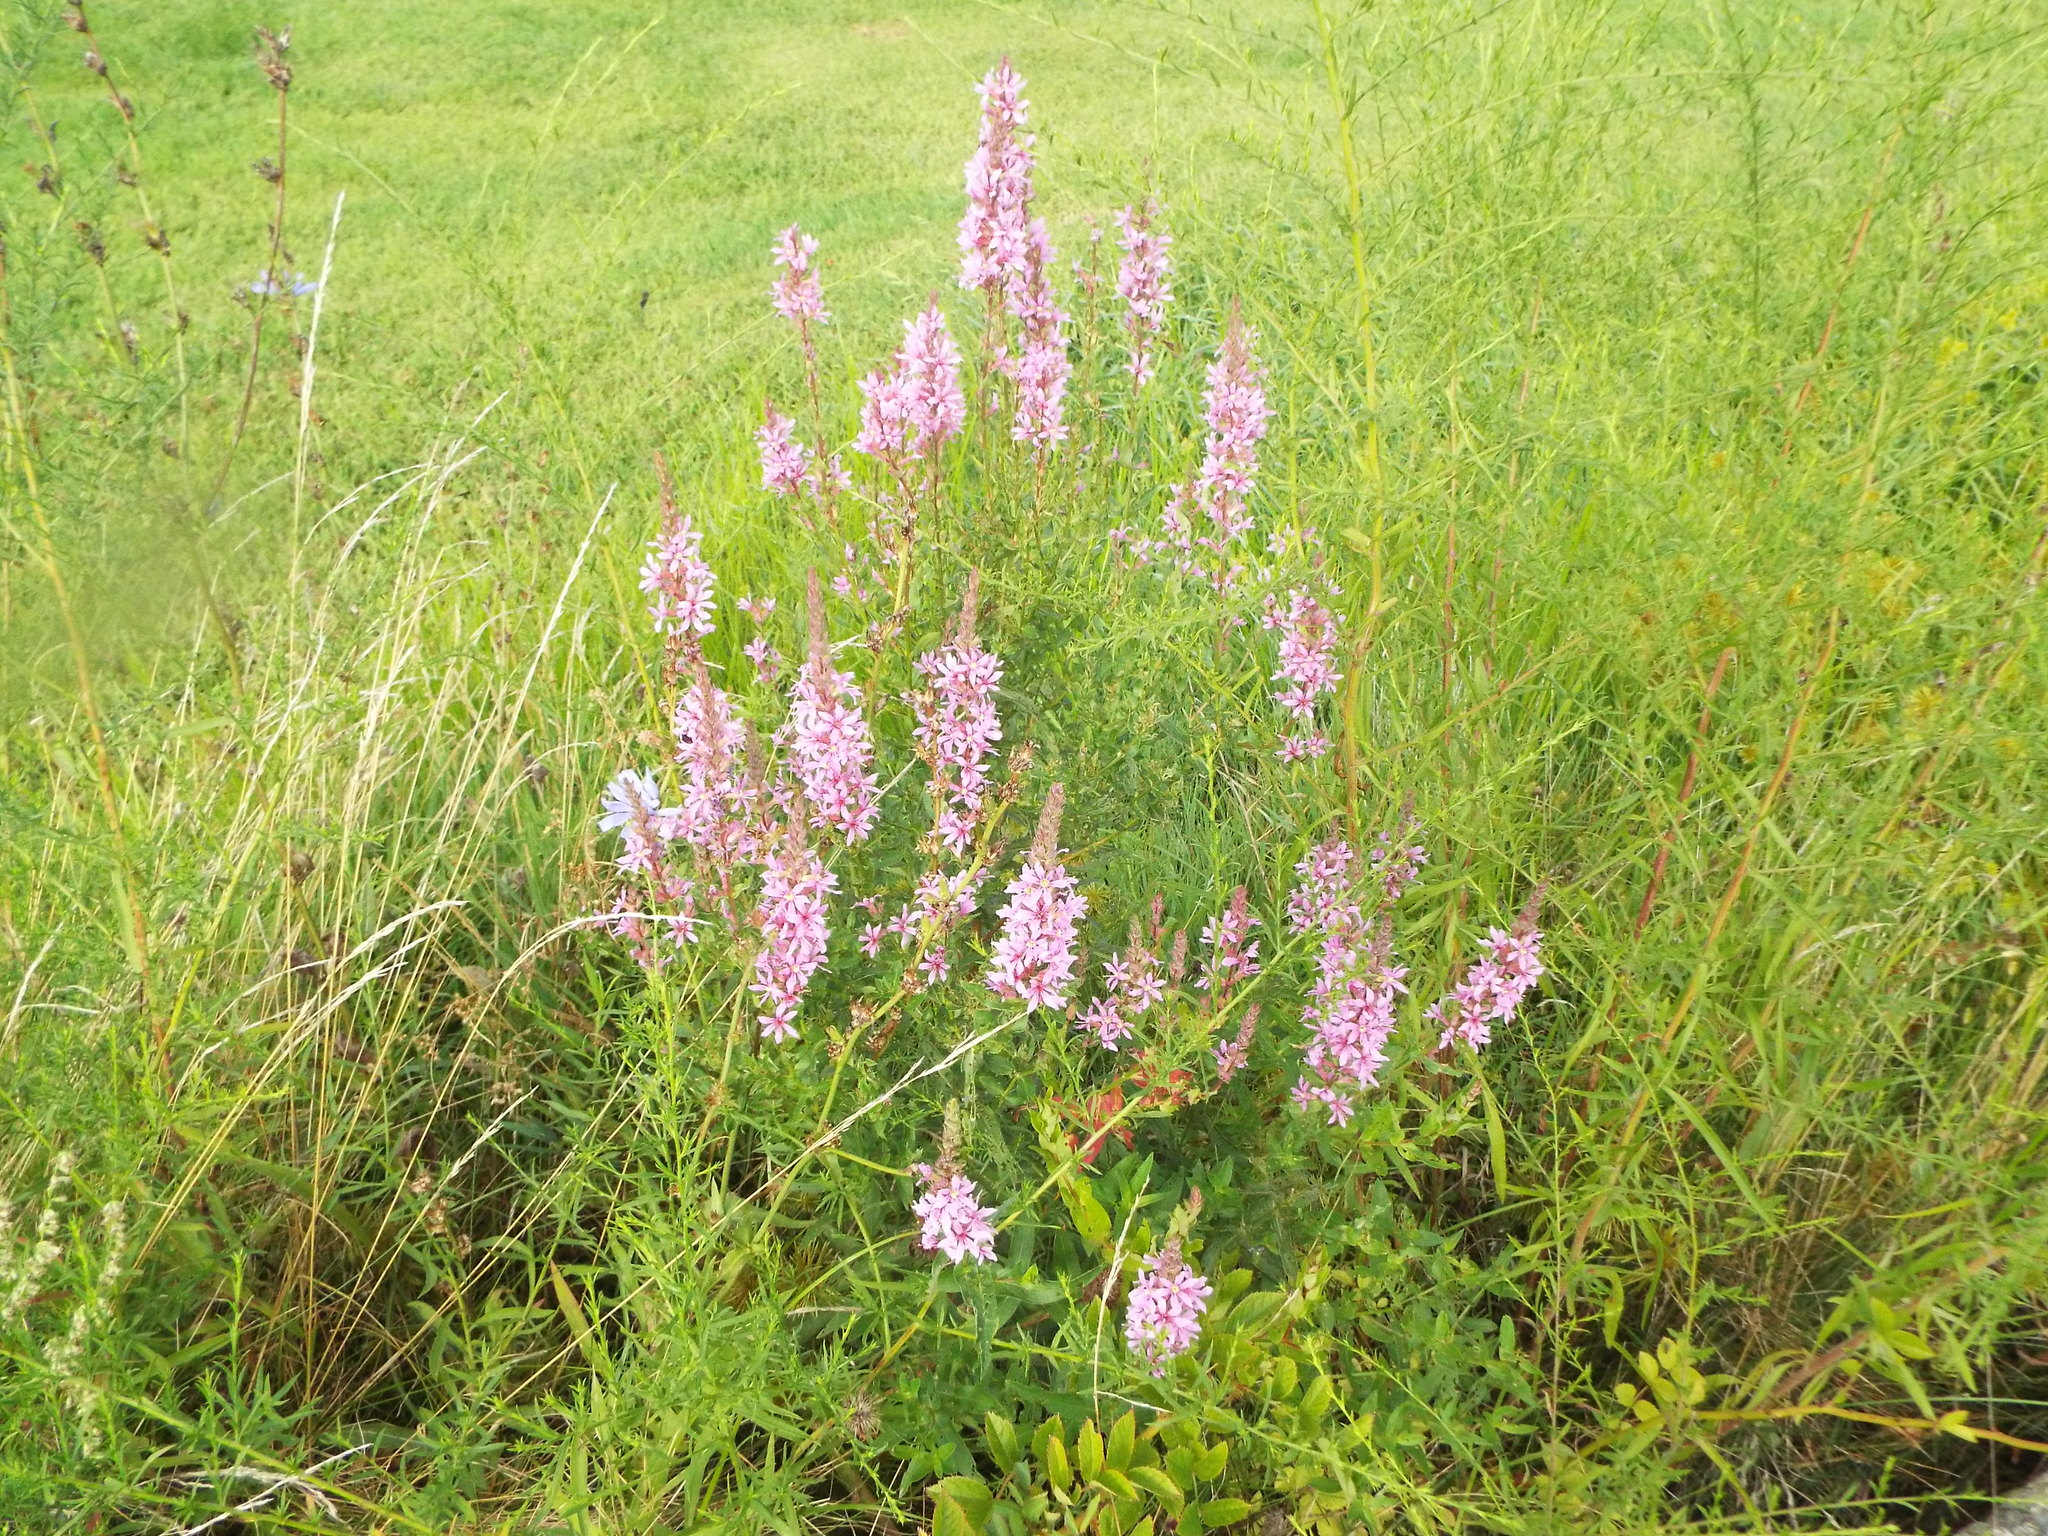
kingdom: Plantae
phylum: Tracheophyta
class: Magnoliopsida
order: Myrtales
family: Lythraceae
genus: Lythrum
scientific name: Lythrum salicaria
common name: Purple loosestrife
